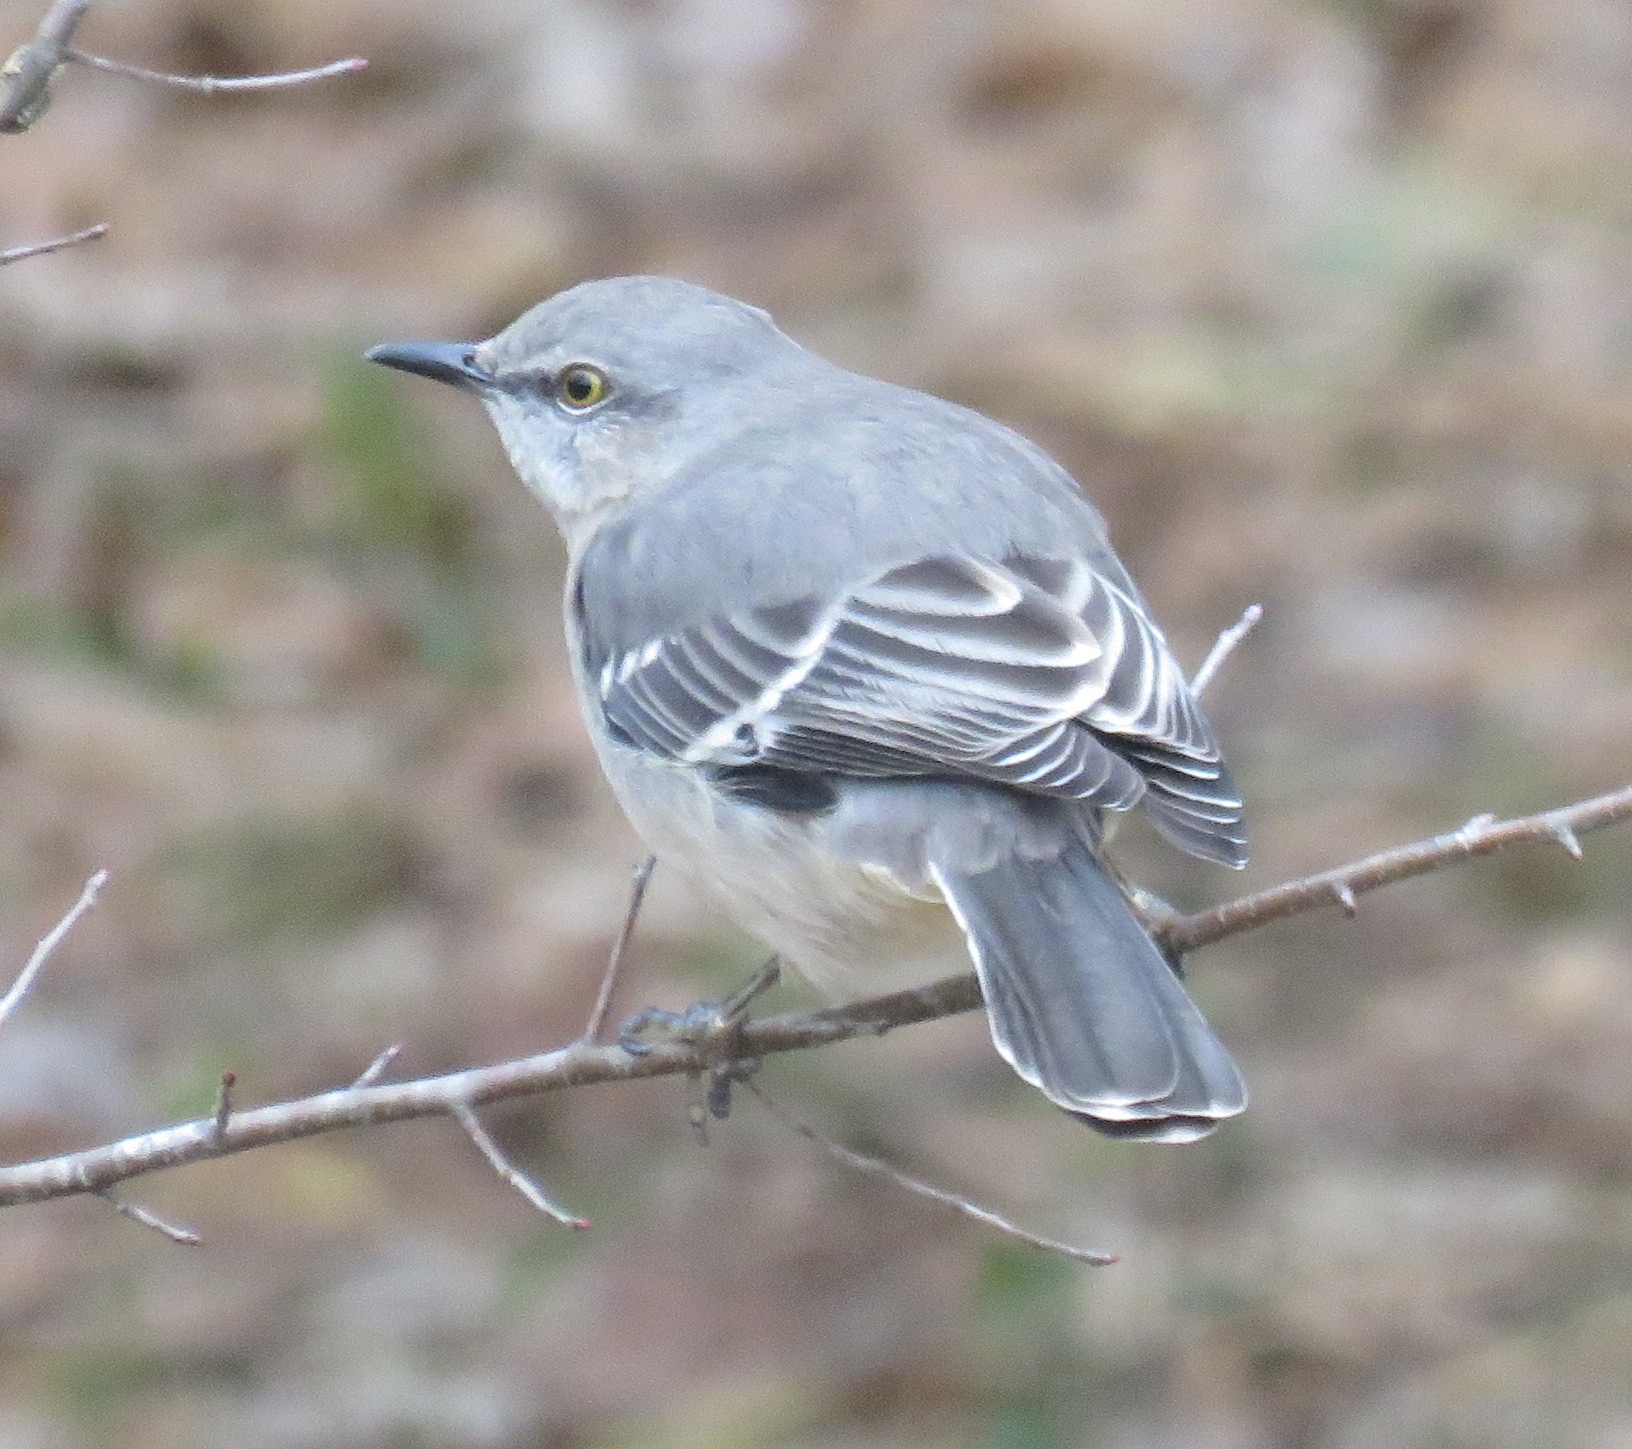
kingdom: Animalia
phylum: Chordata
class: Aves
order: Passeriformes
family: Mimidae
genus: Mimus
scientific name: Mimus polyglottos
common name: Northern mockingbird
